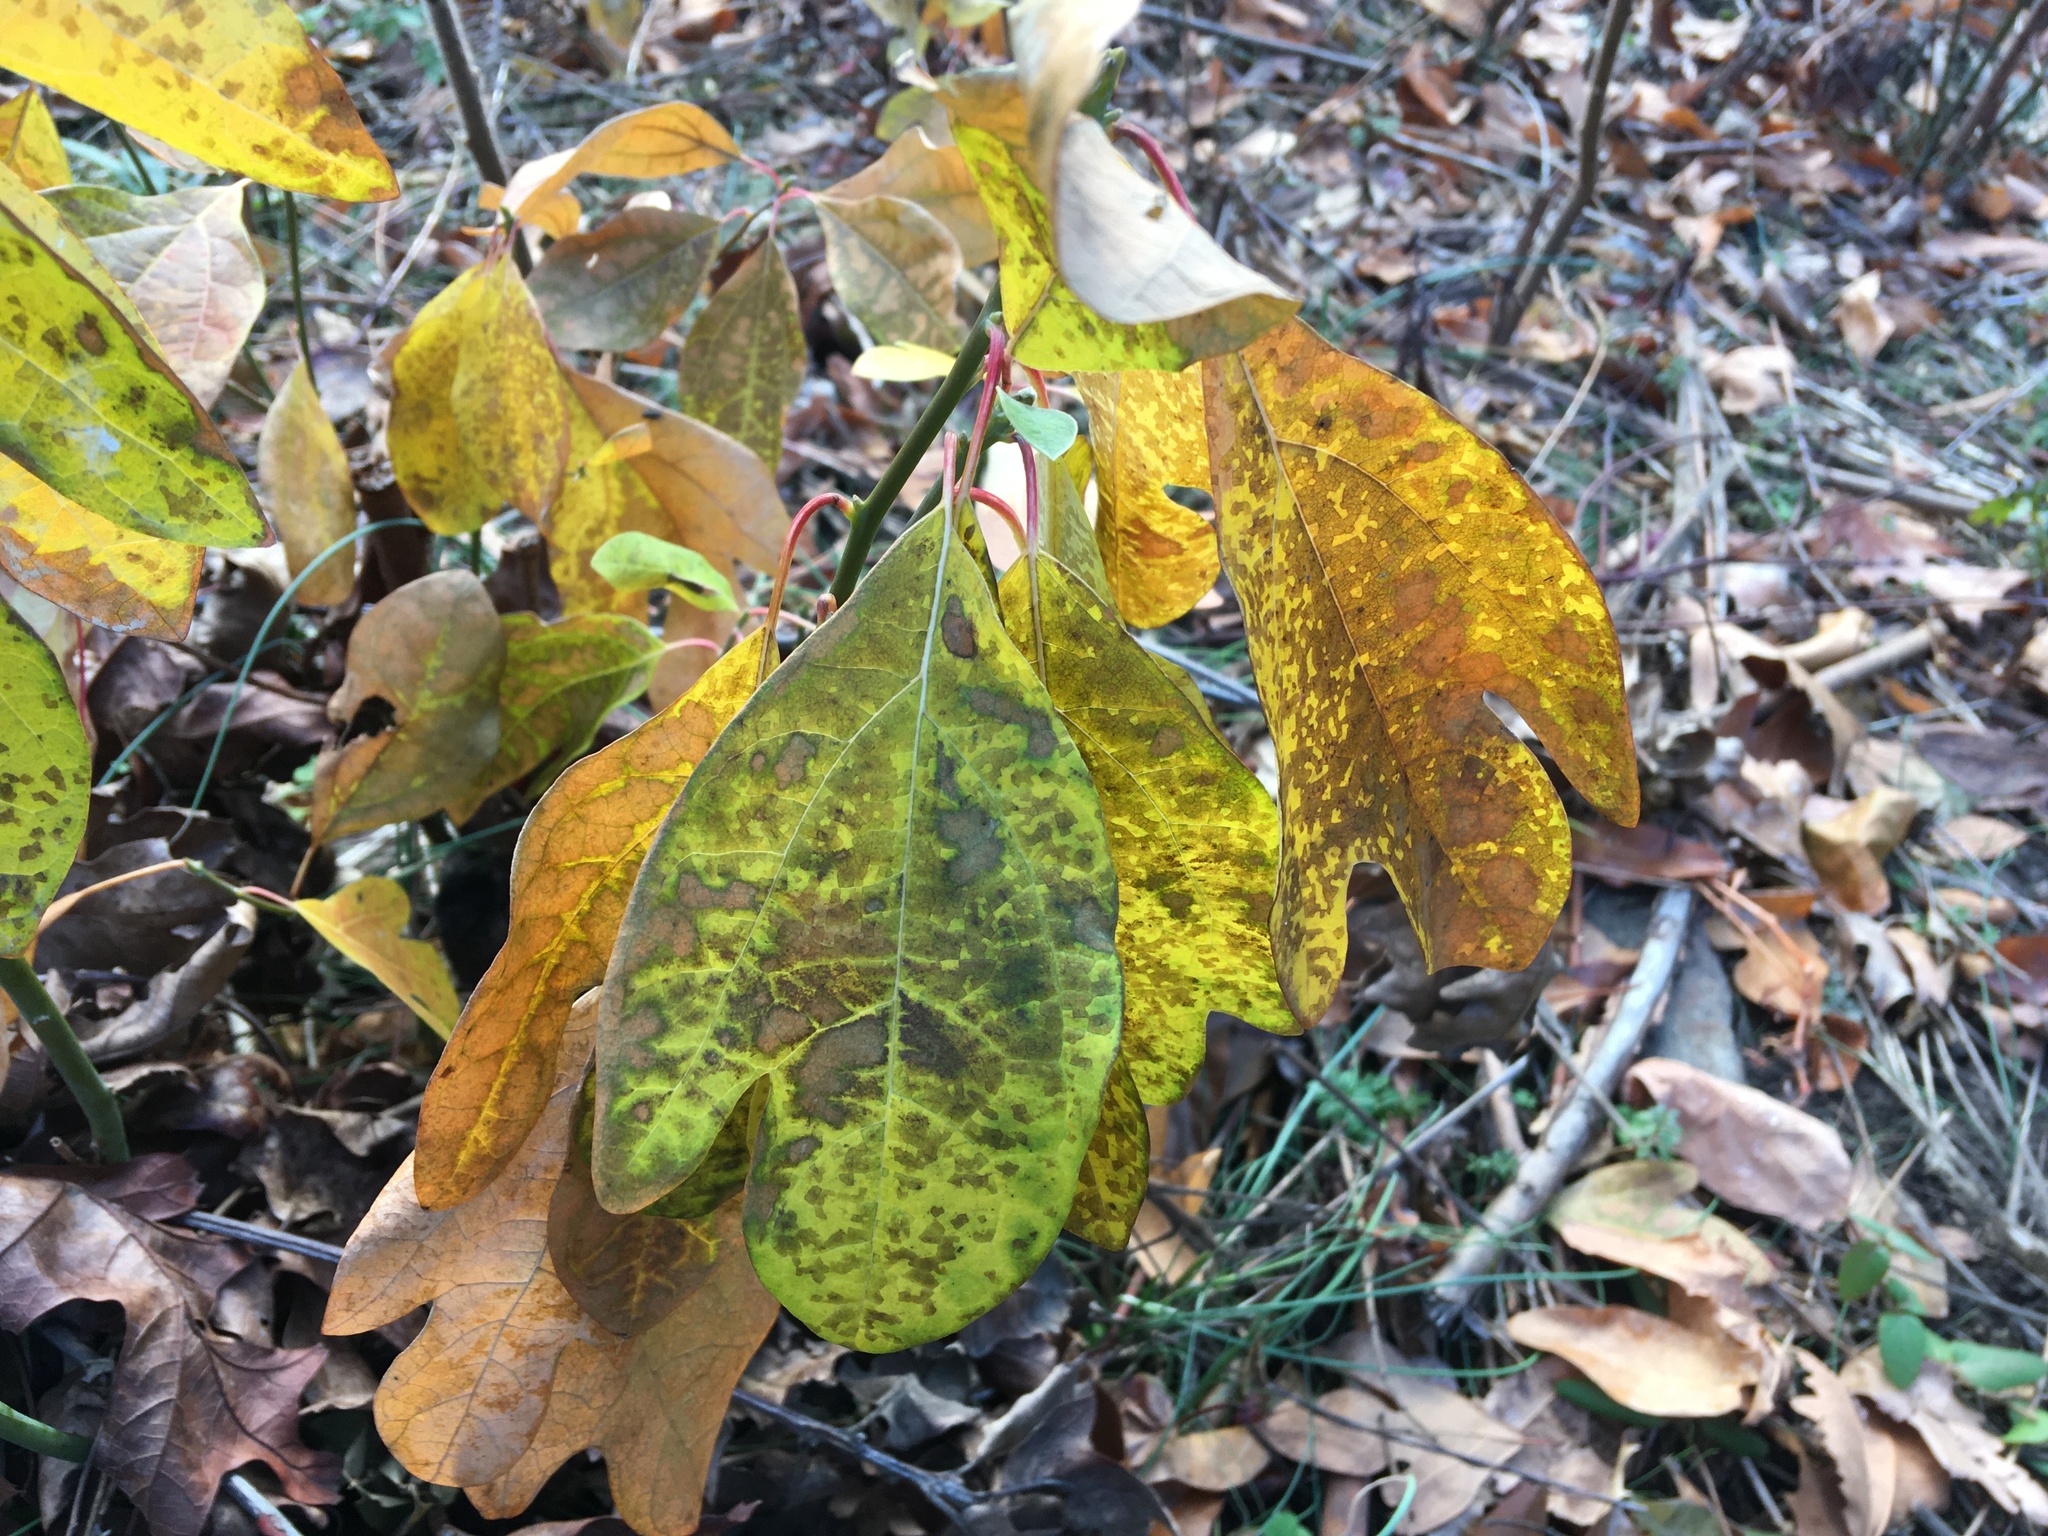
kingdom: Plantae
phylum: Tracheophyta
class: Magnoliopsida
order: Laurales
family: Lauraceae
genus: Sassafras
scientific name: Sassafras albidum
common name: Sassafras
